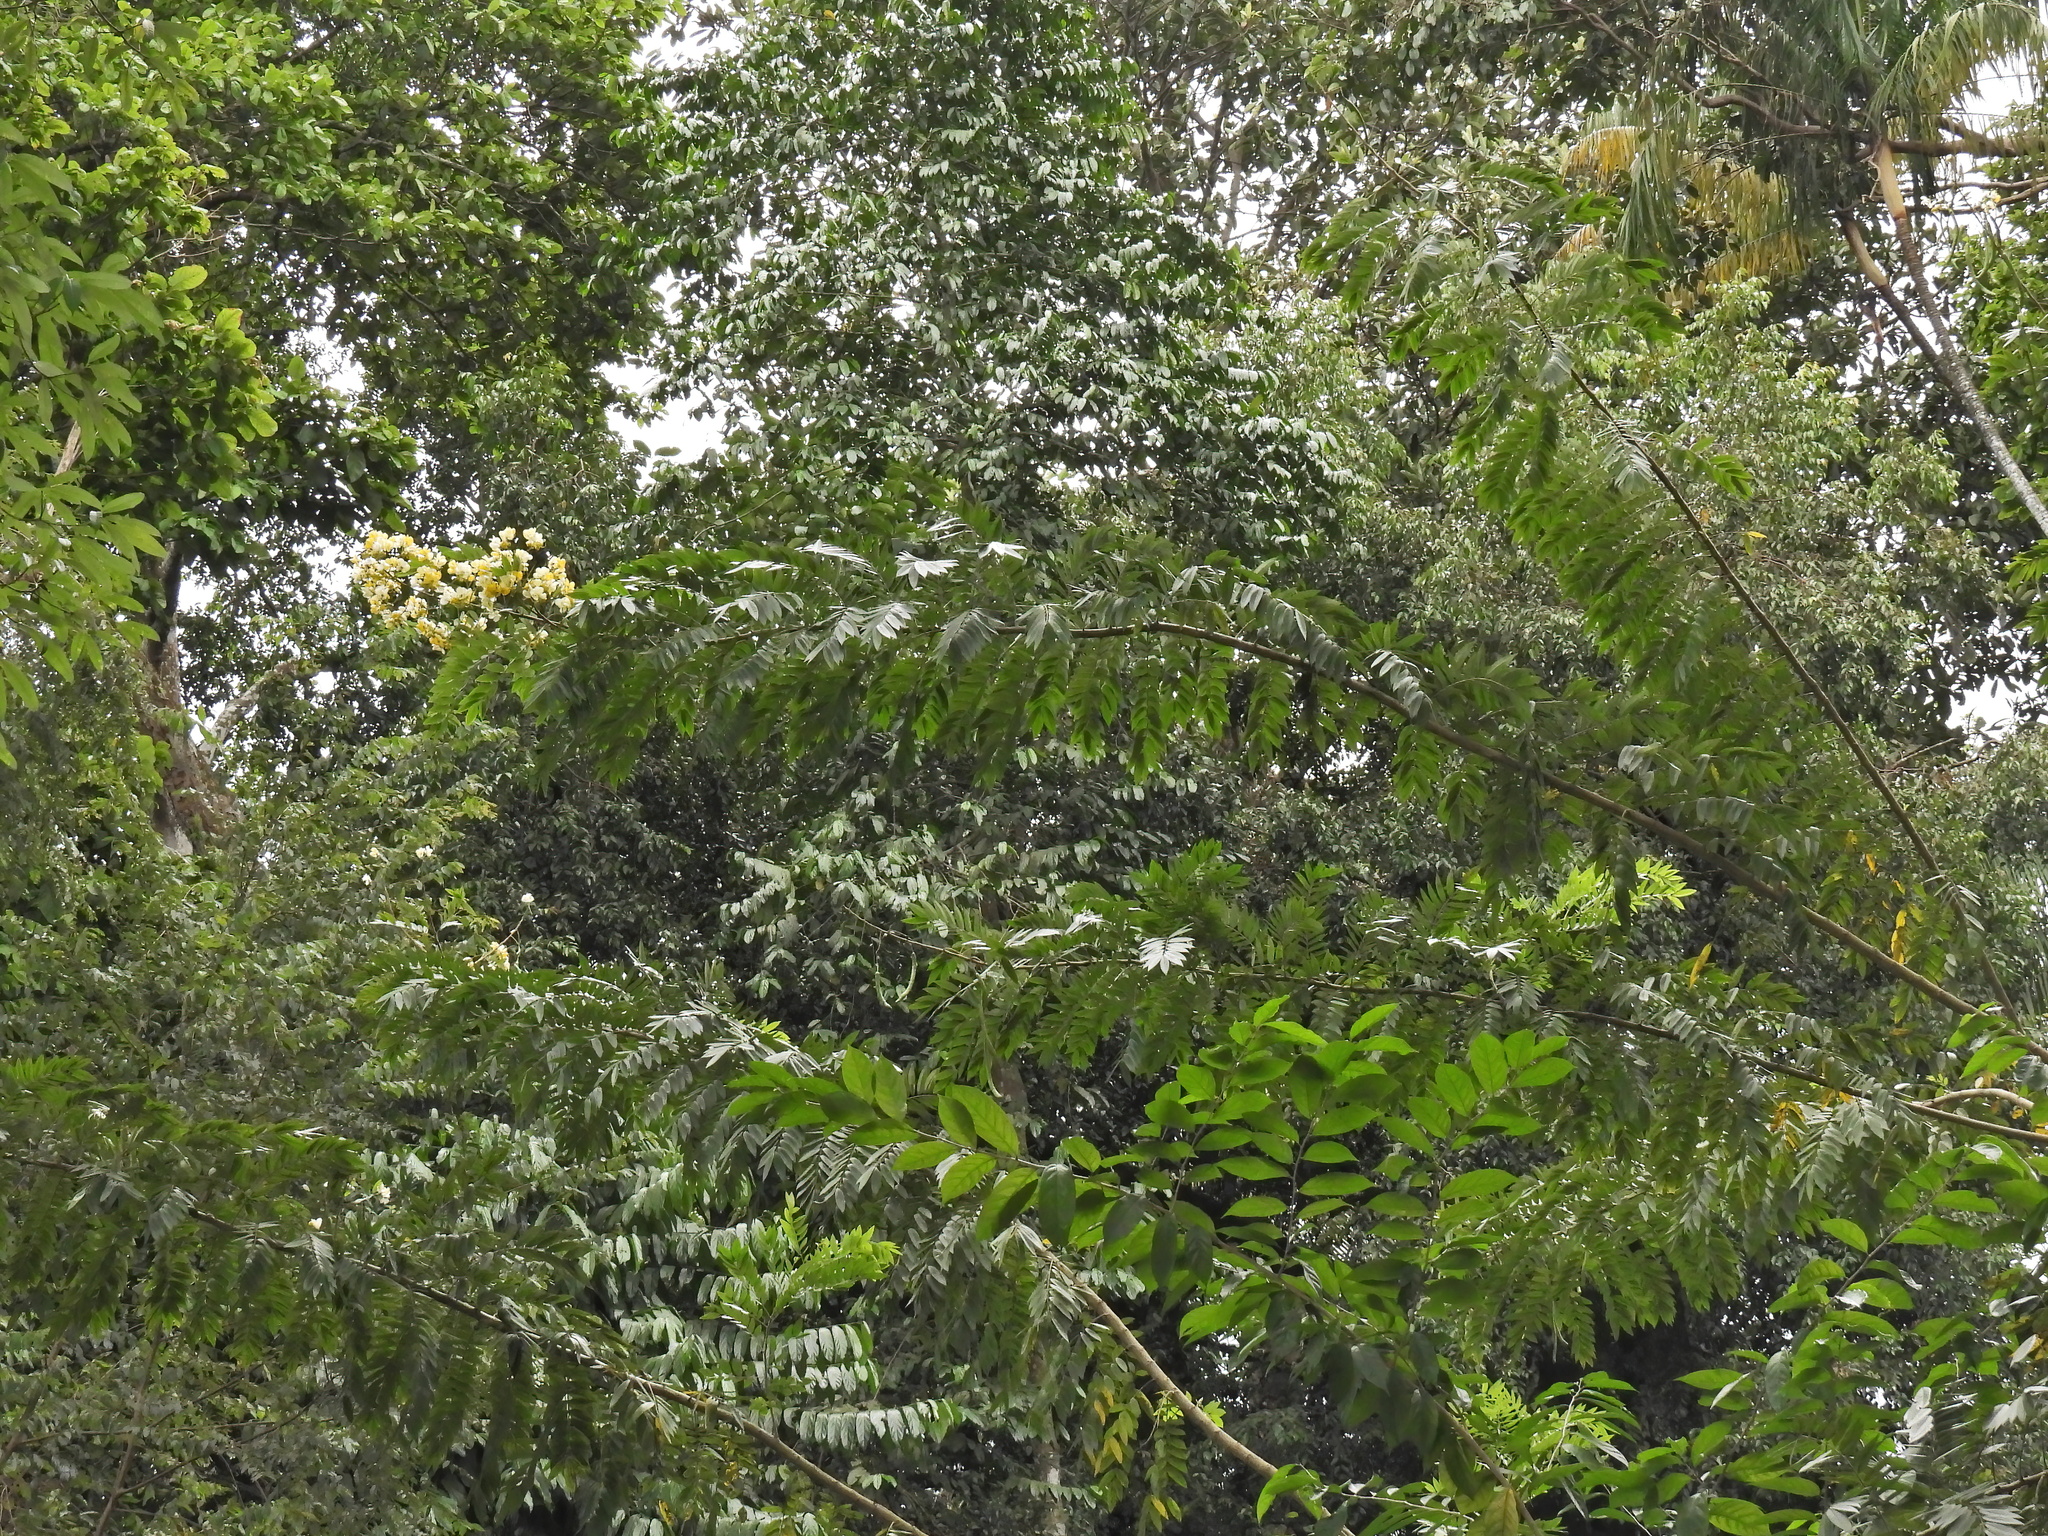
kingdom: Plantae
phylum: Tracheophyta
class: Magnoliopsida
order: Fabales
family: Fabaceae
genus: Senna
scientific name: Senna spectabilis
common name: Casia amarilla
